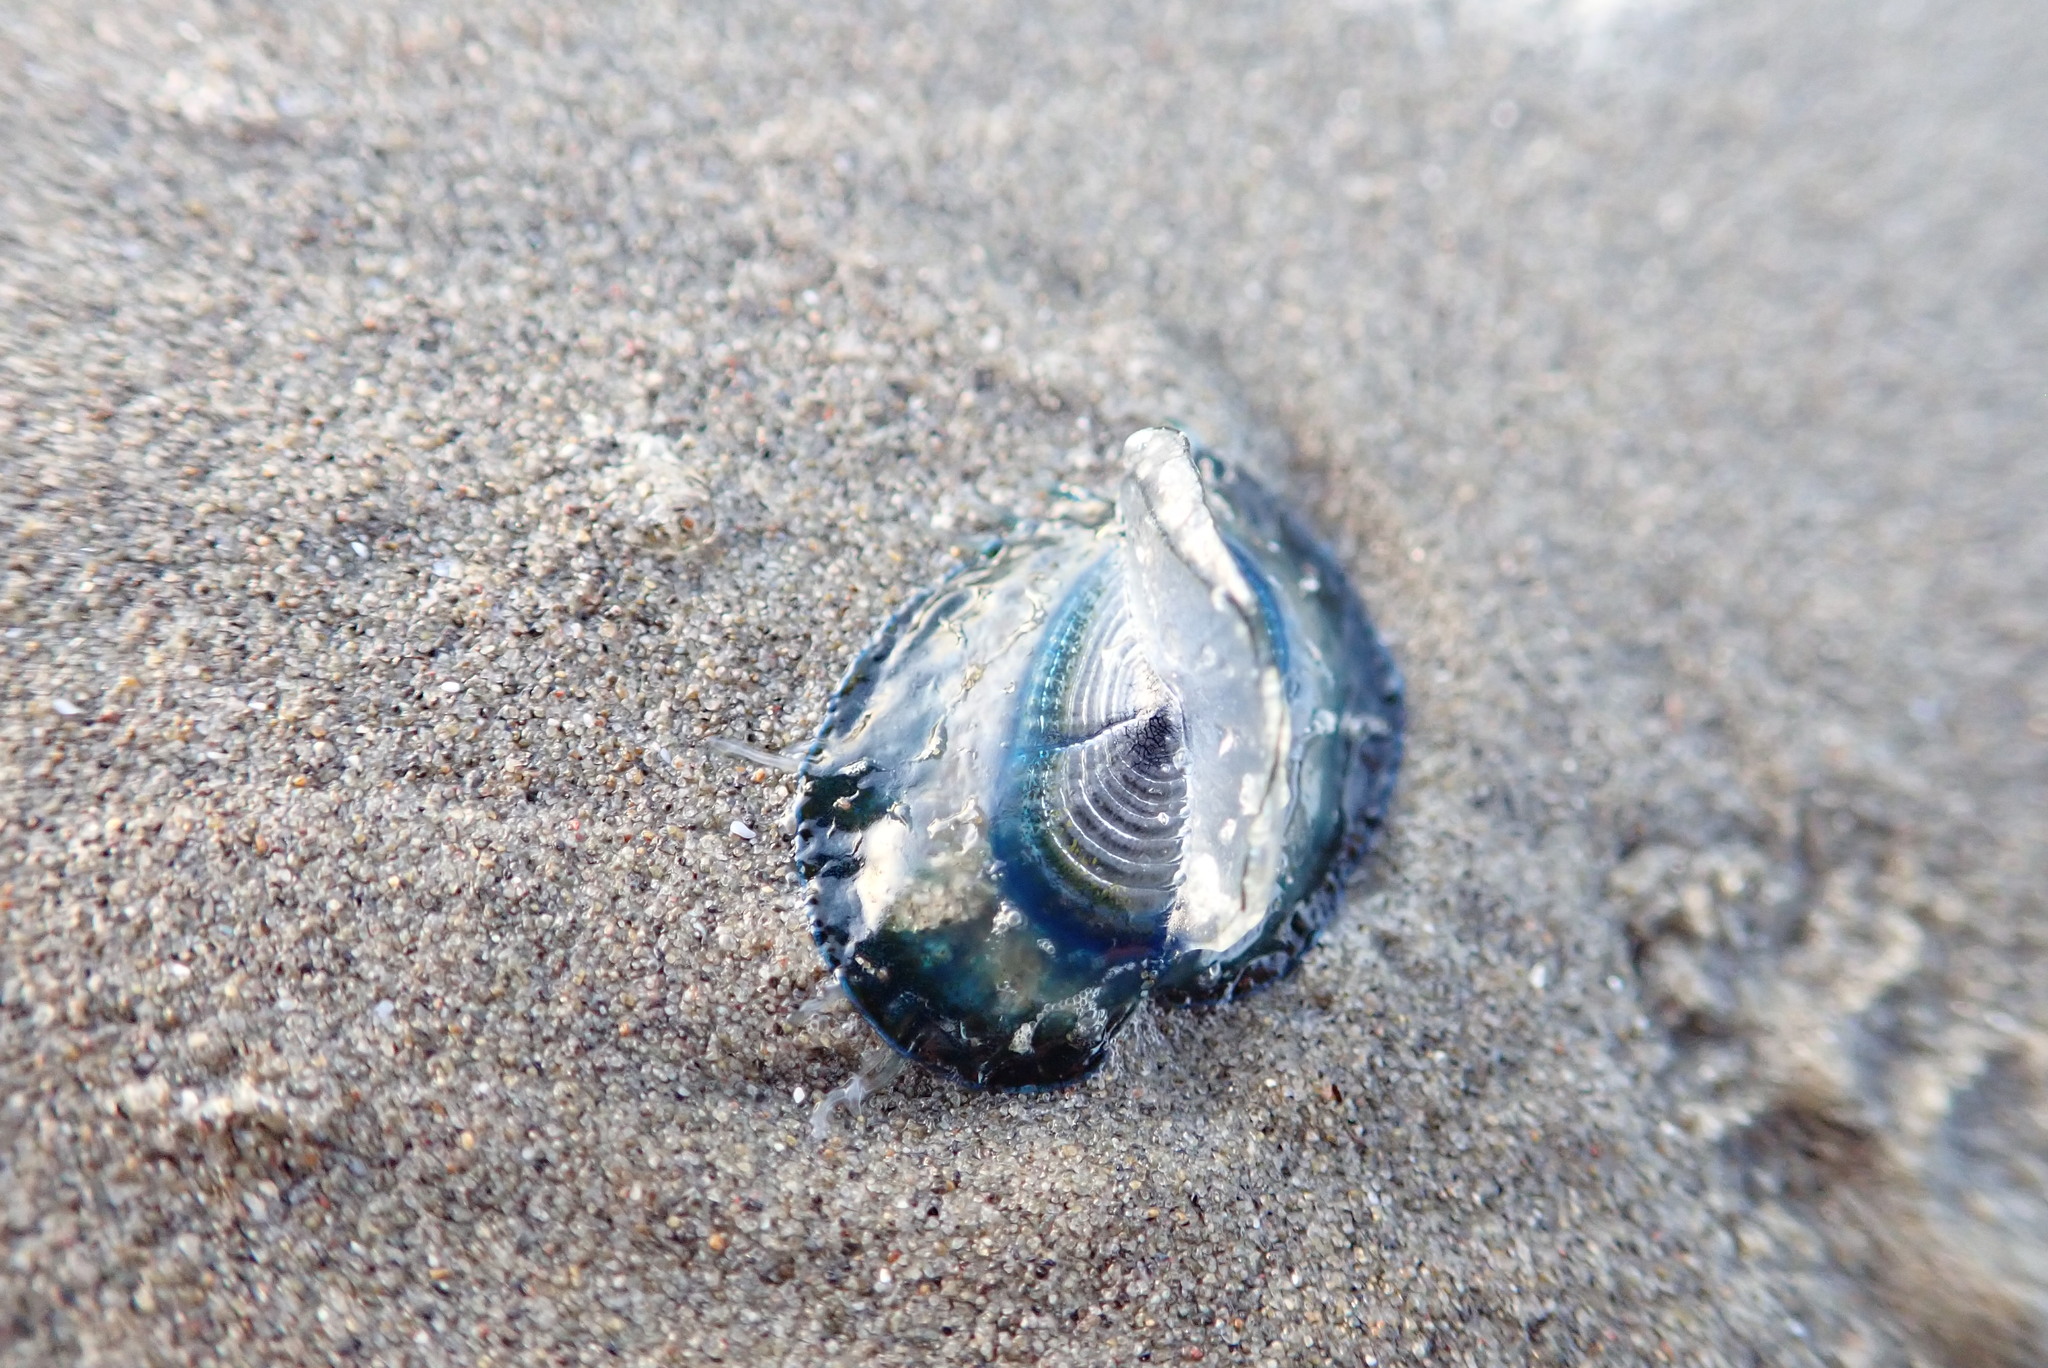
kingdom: Animalia
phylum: Cnidaria
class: Hydrozoa
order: Anthoathecata
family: Porpitidae
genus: Velella
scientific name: Velella velella
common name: By-the-wind-sailor
